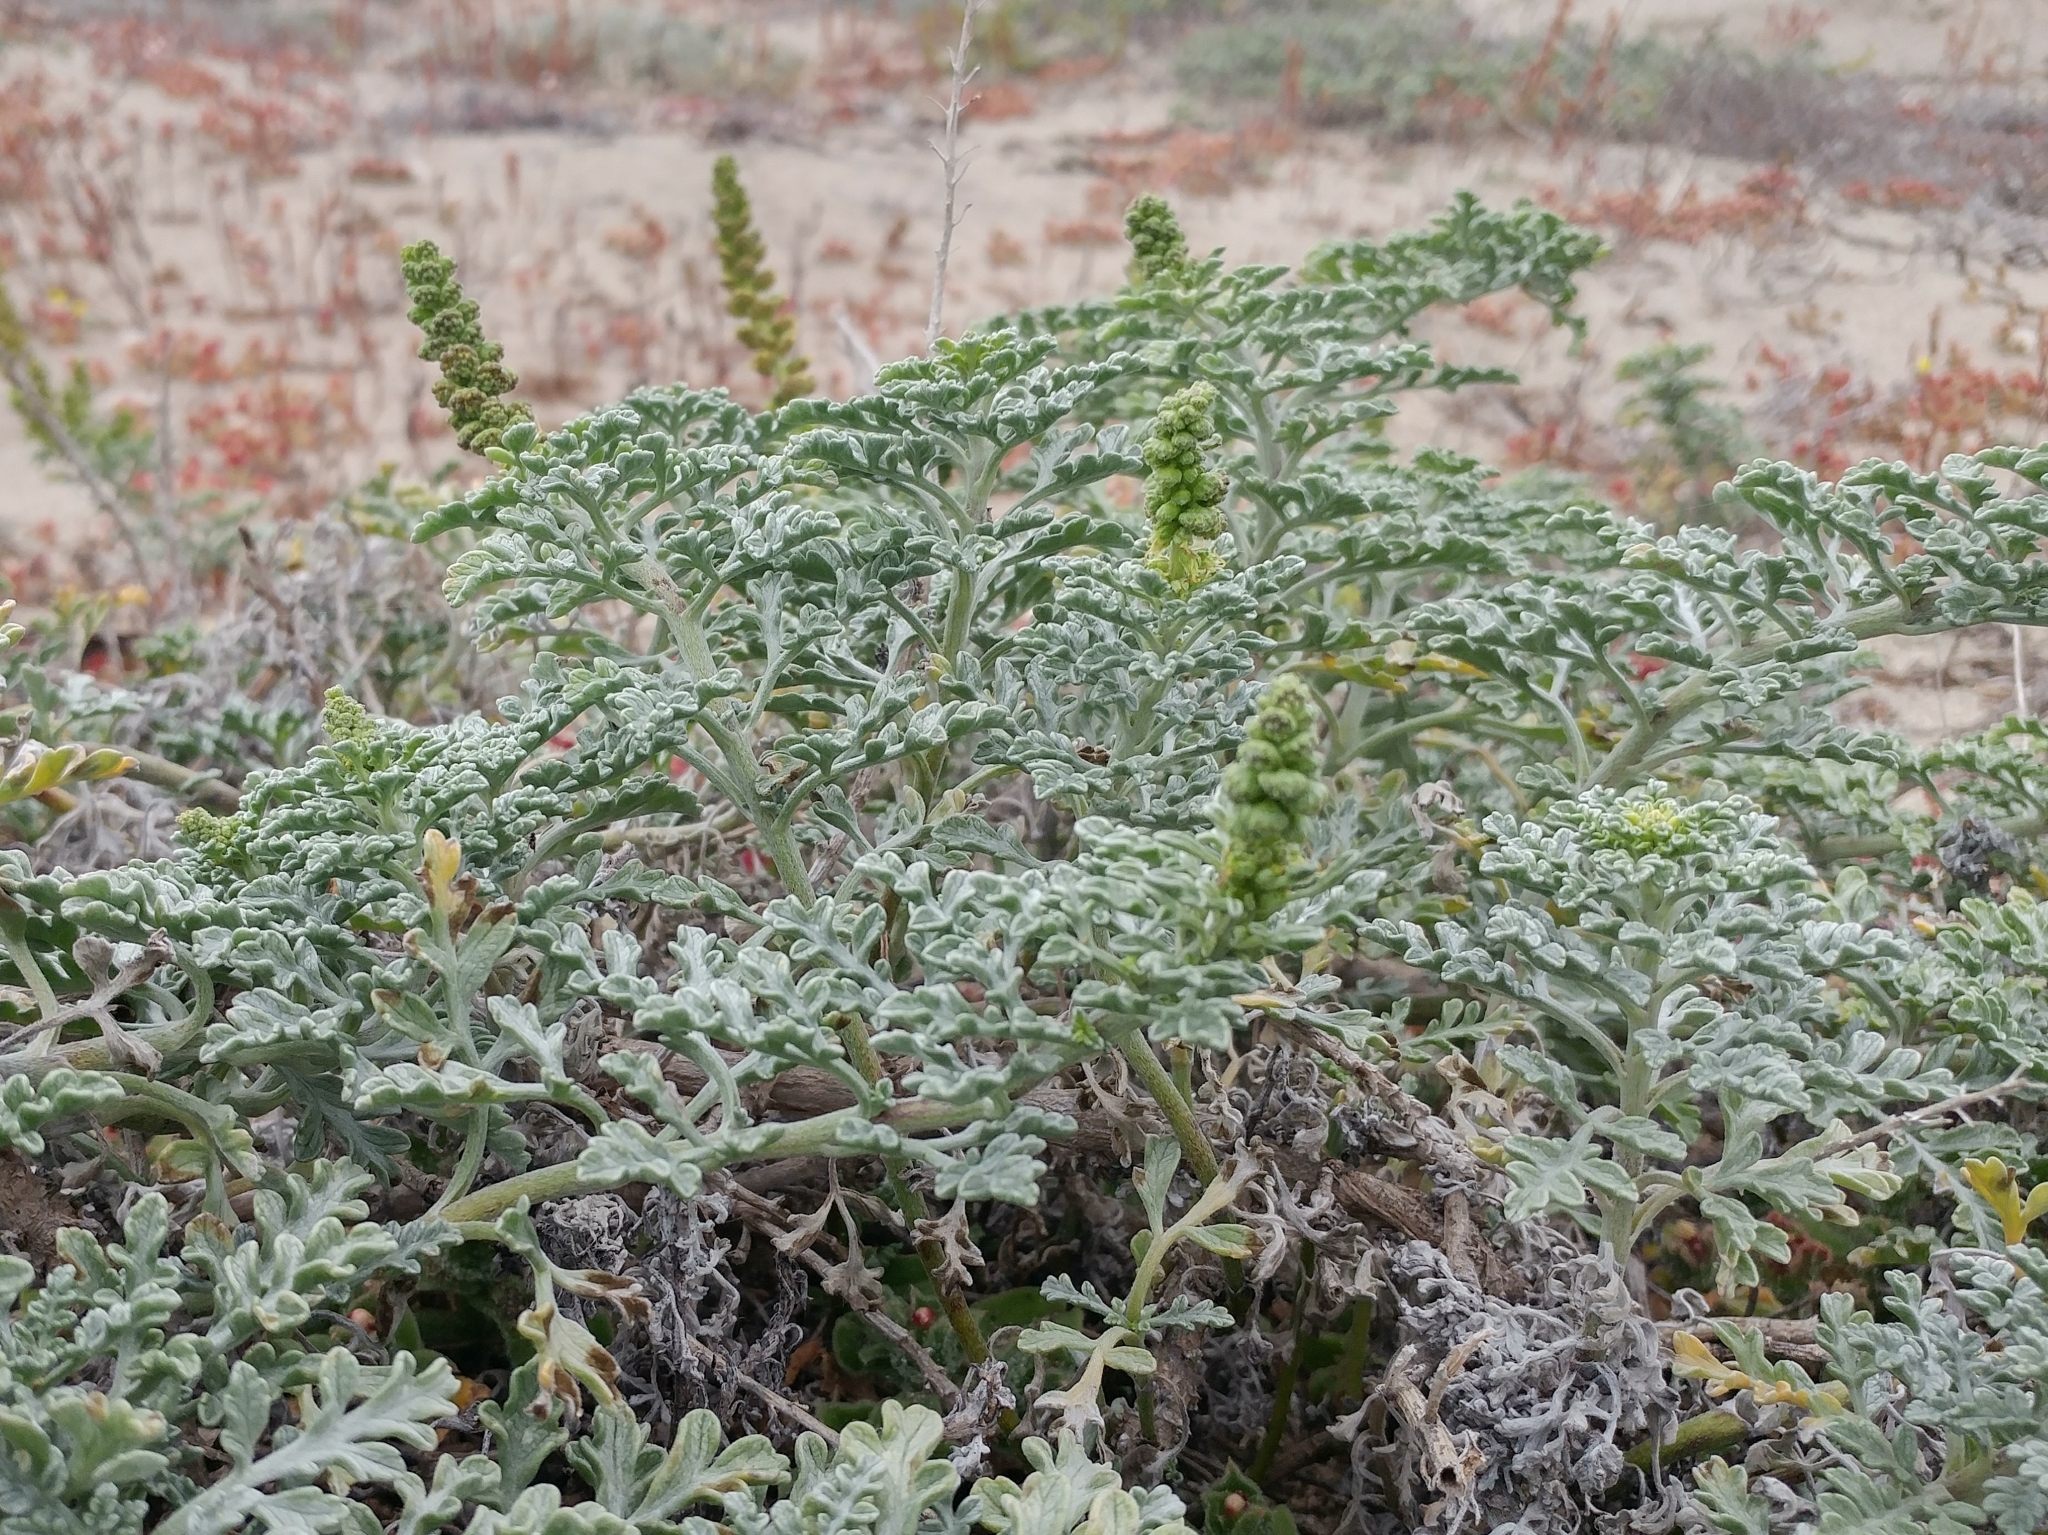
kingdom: Plantae
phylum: Tracheophyta
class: Magnoliopsida
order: Asterales
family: Asteraceae
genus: Ambrosia
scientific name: Ambrosia chamissonis
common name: Beachbur
